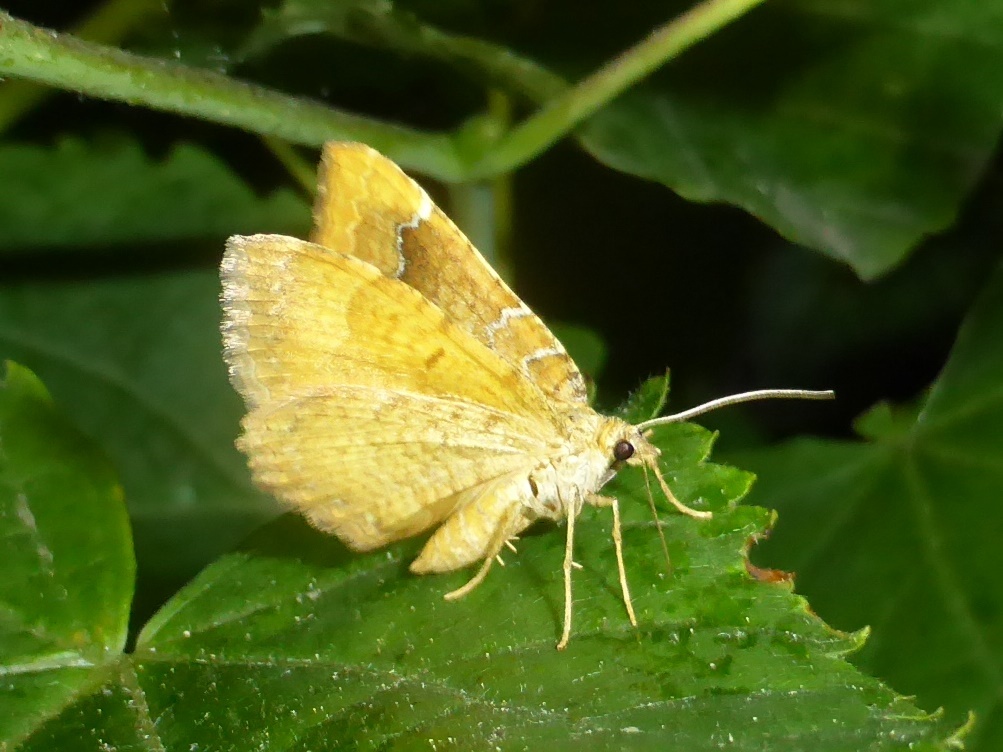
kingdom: Animalia
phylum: Arthropoda
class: Insecta
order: Lepidoptera
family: Geometridae
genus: Camptogramma
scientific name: Camptogramma bilineata
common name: Yellow shell
